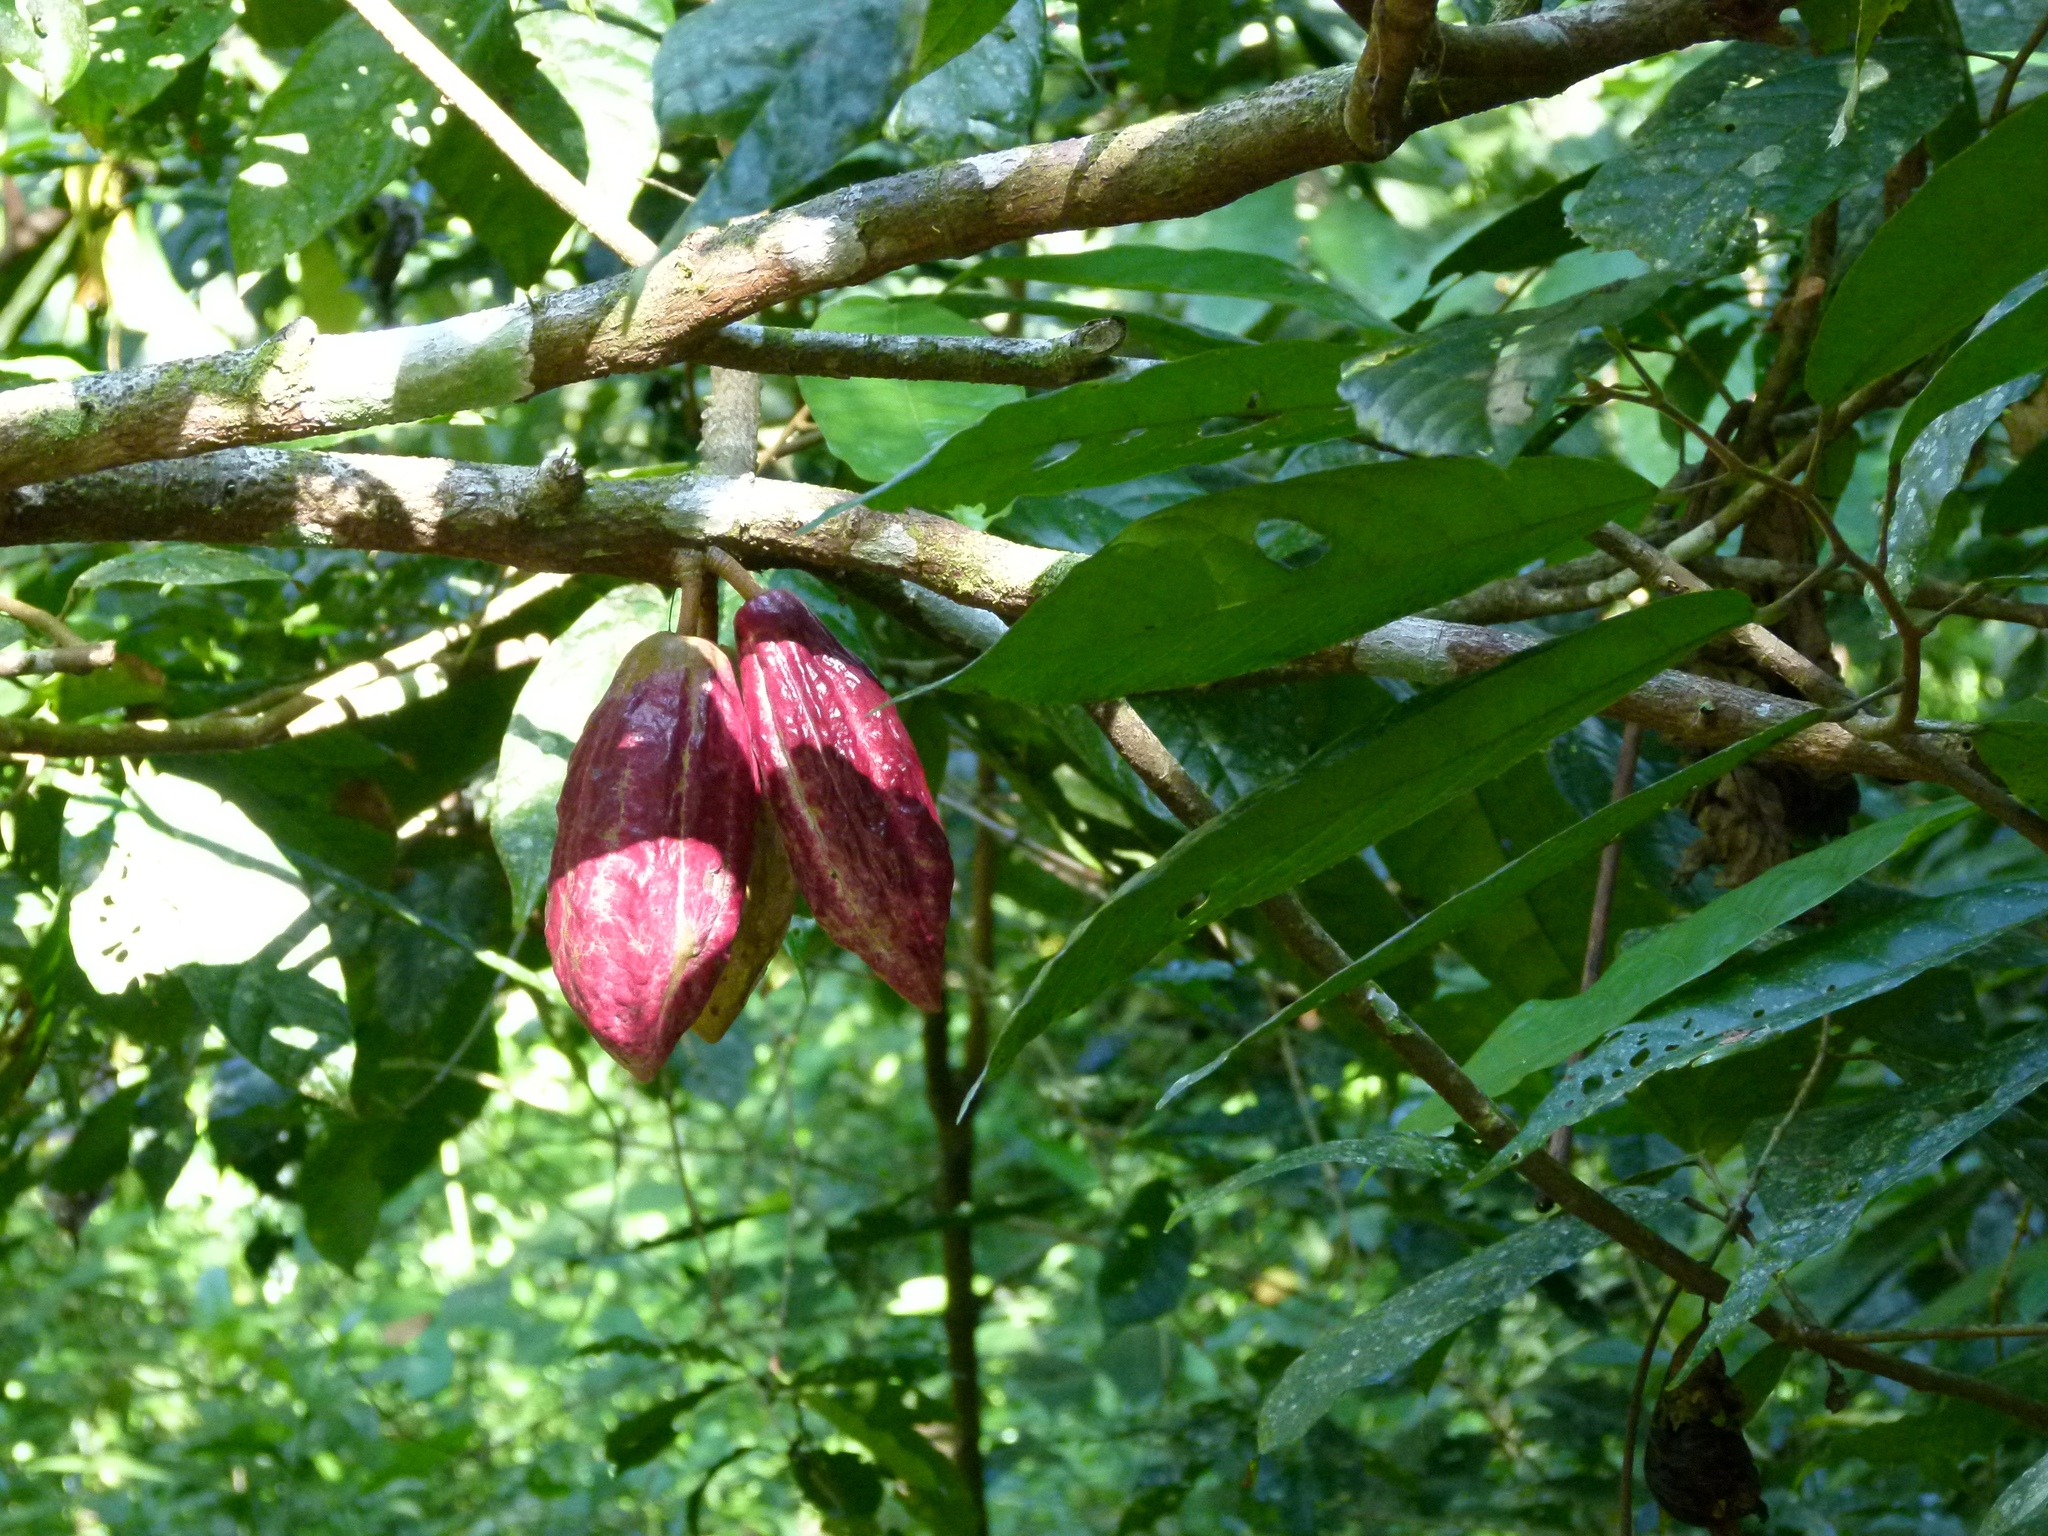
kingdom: Plantae
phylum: Tracheophyta
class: Magnoliopsida
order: Malvales
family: Malvaceae
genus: Theobroma
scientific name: Theobroma cacao
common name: Cocoa
